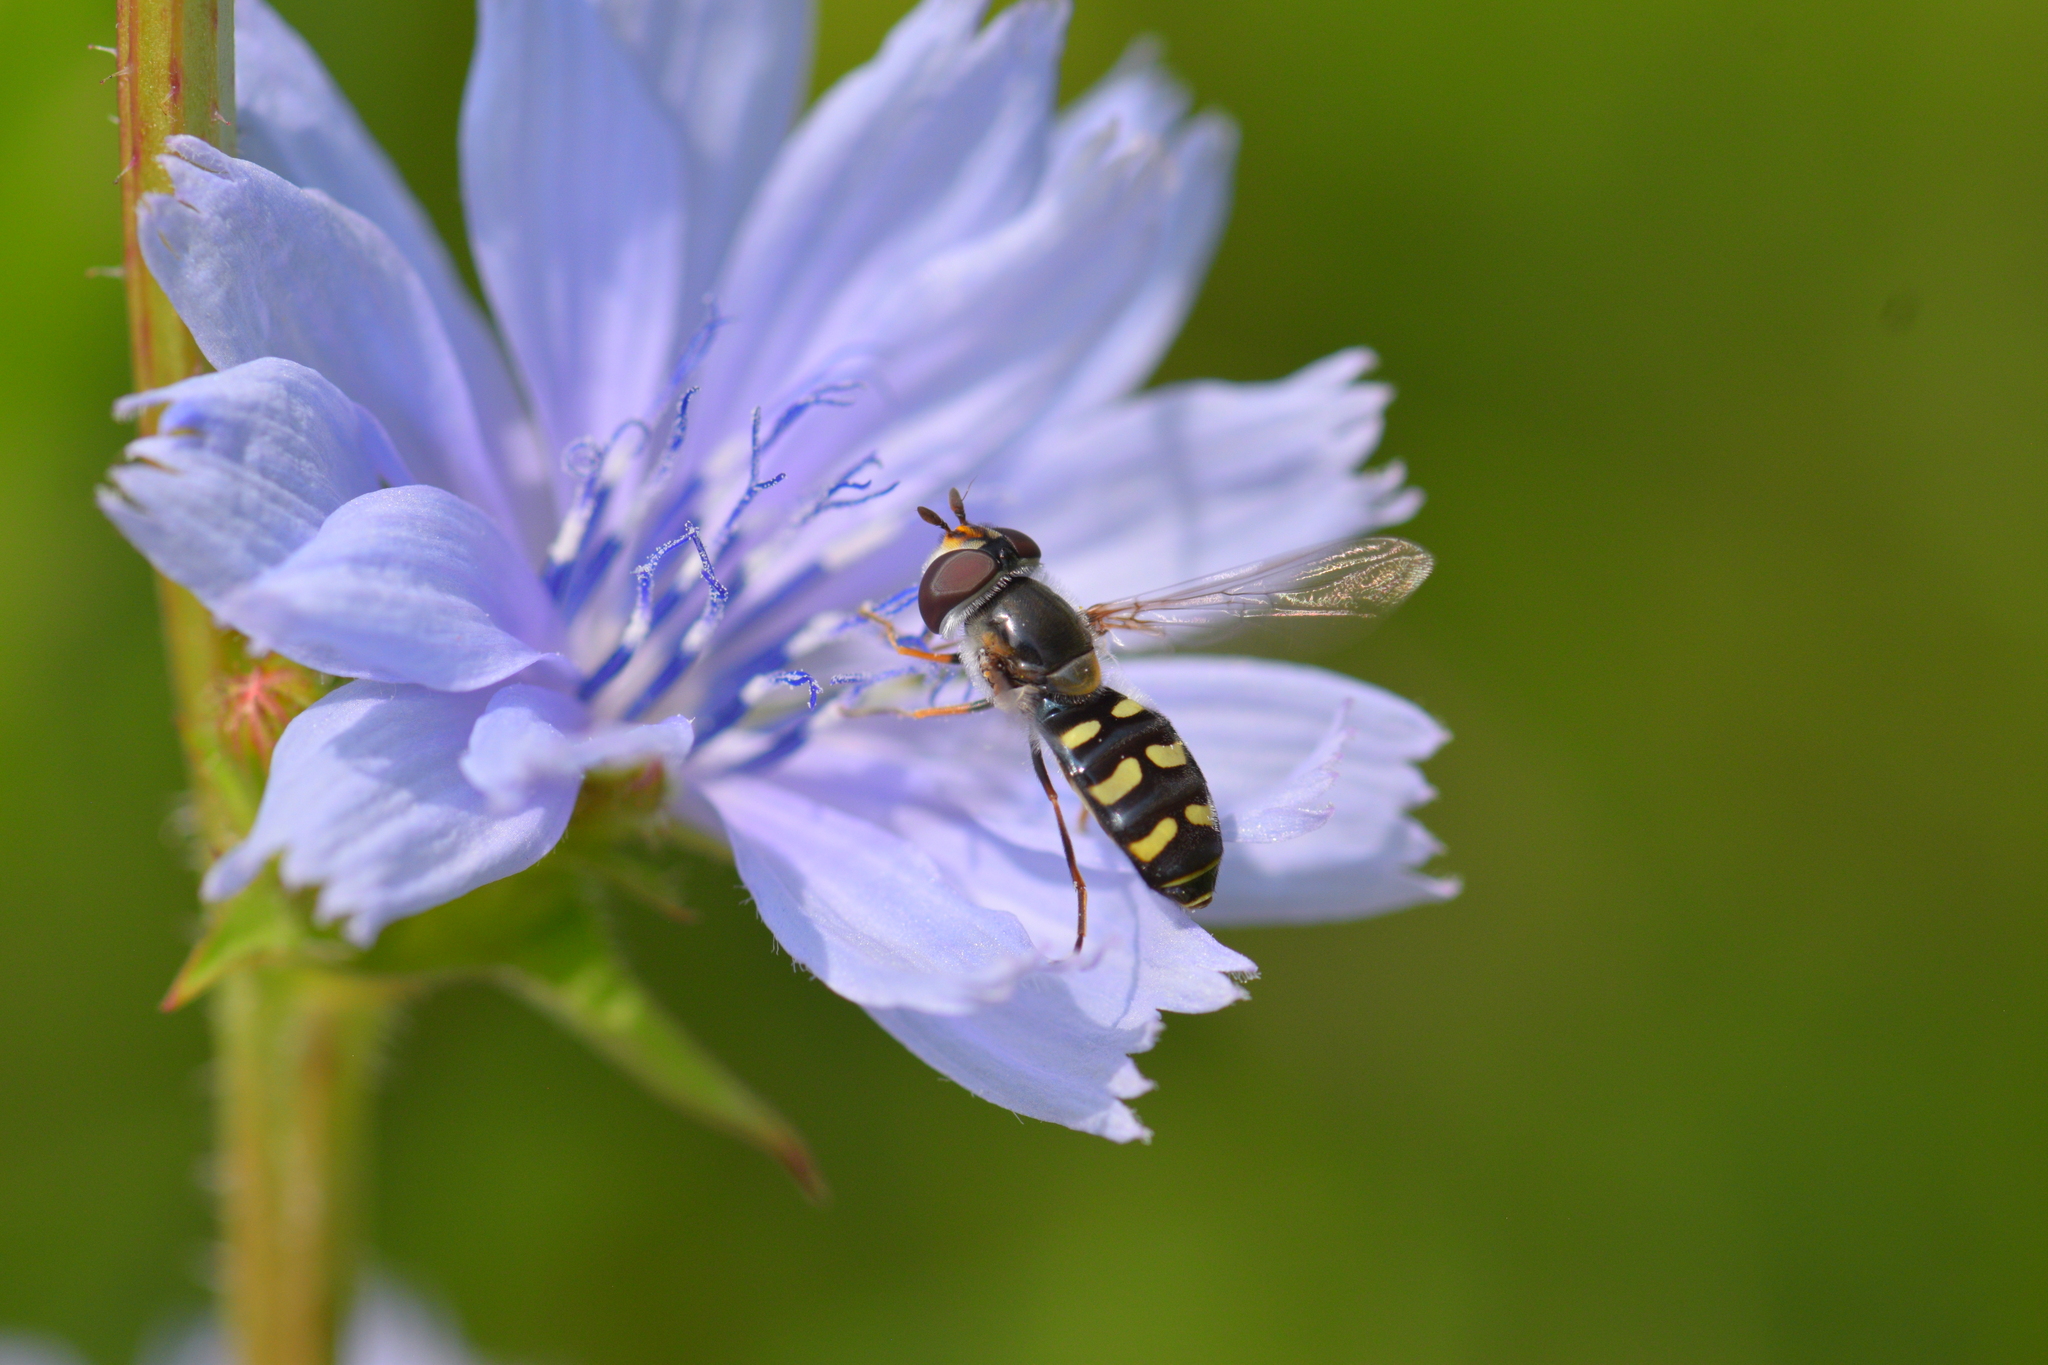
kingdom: Animalia
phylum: Arthropoda
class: Insecta
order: Diptera
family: Syrphidae
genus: Eupeodes
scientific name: Eupeodes perplexus
